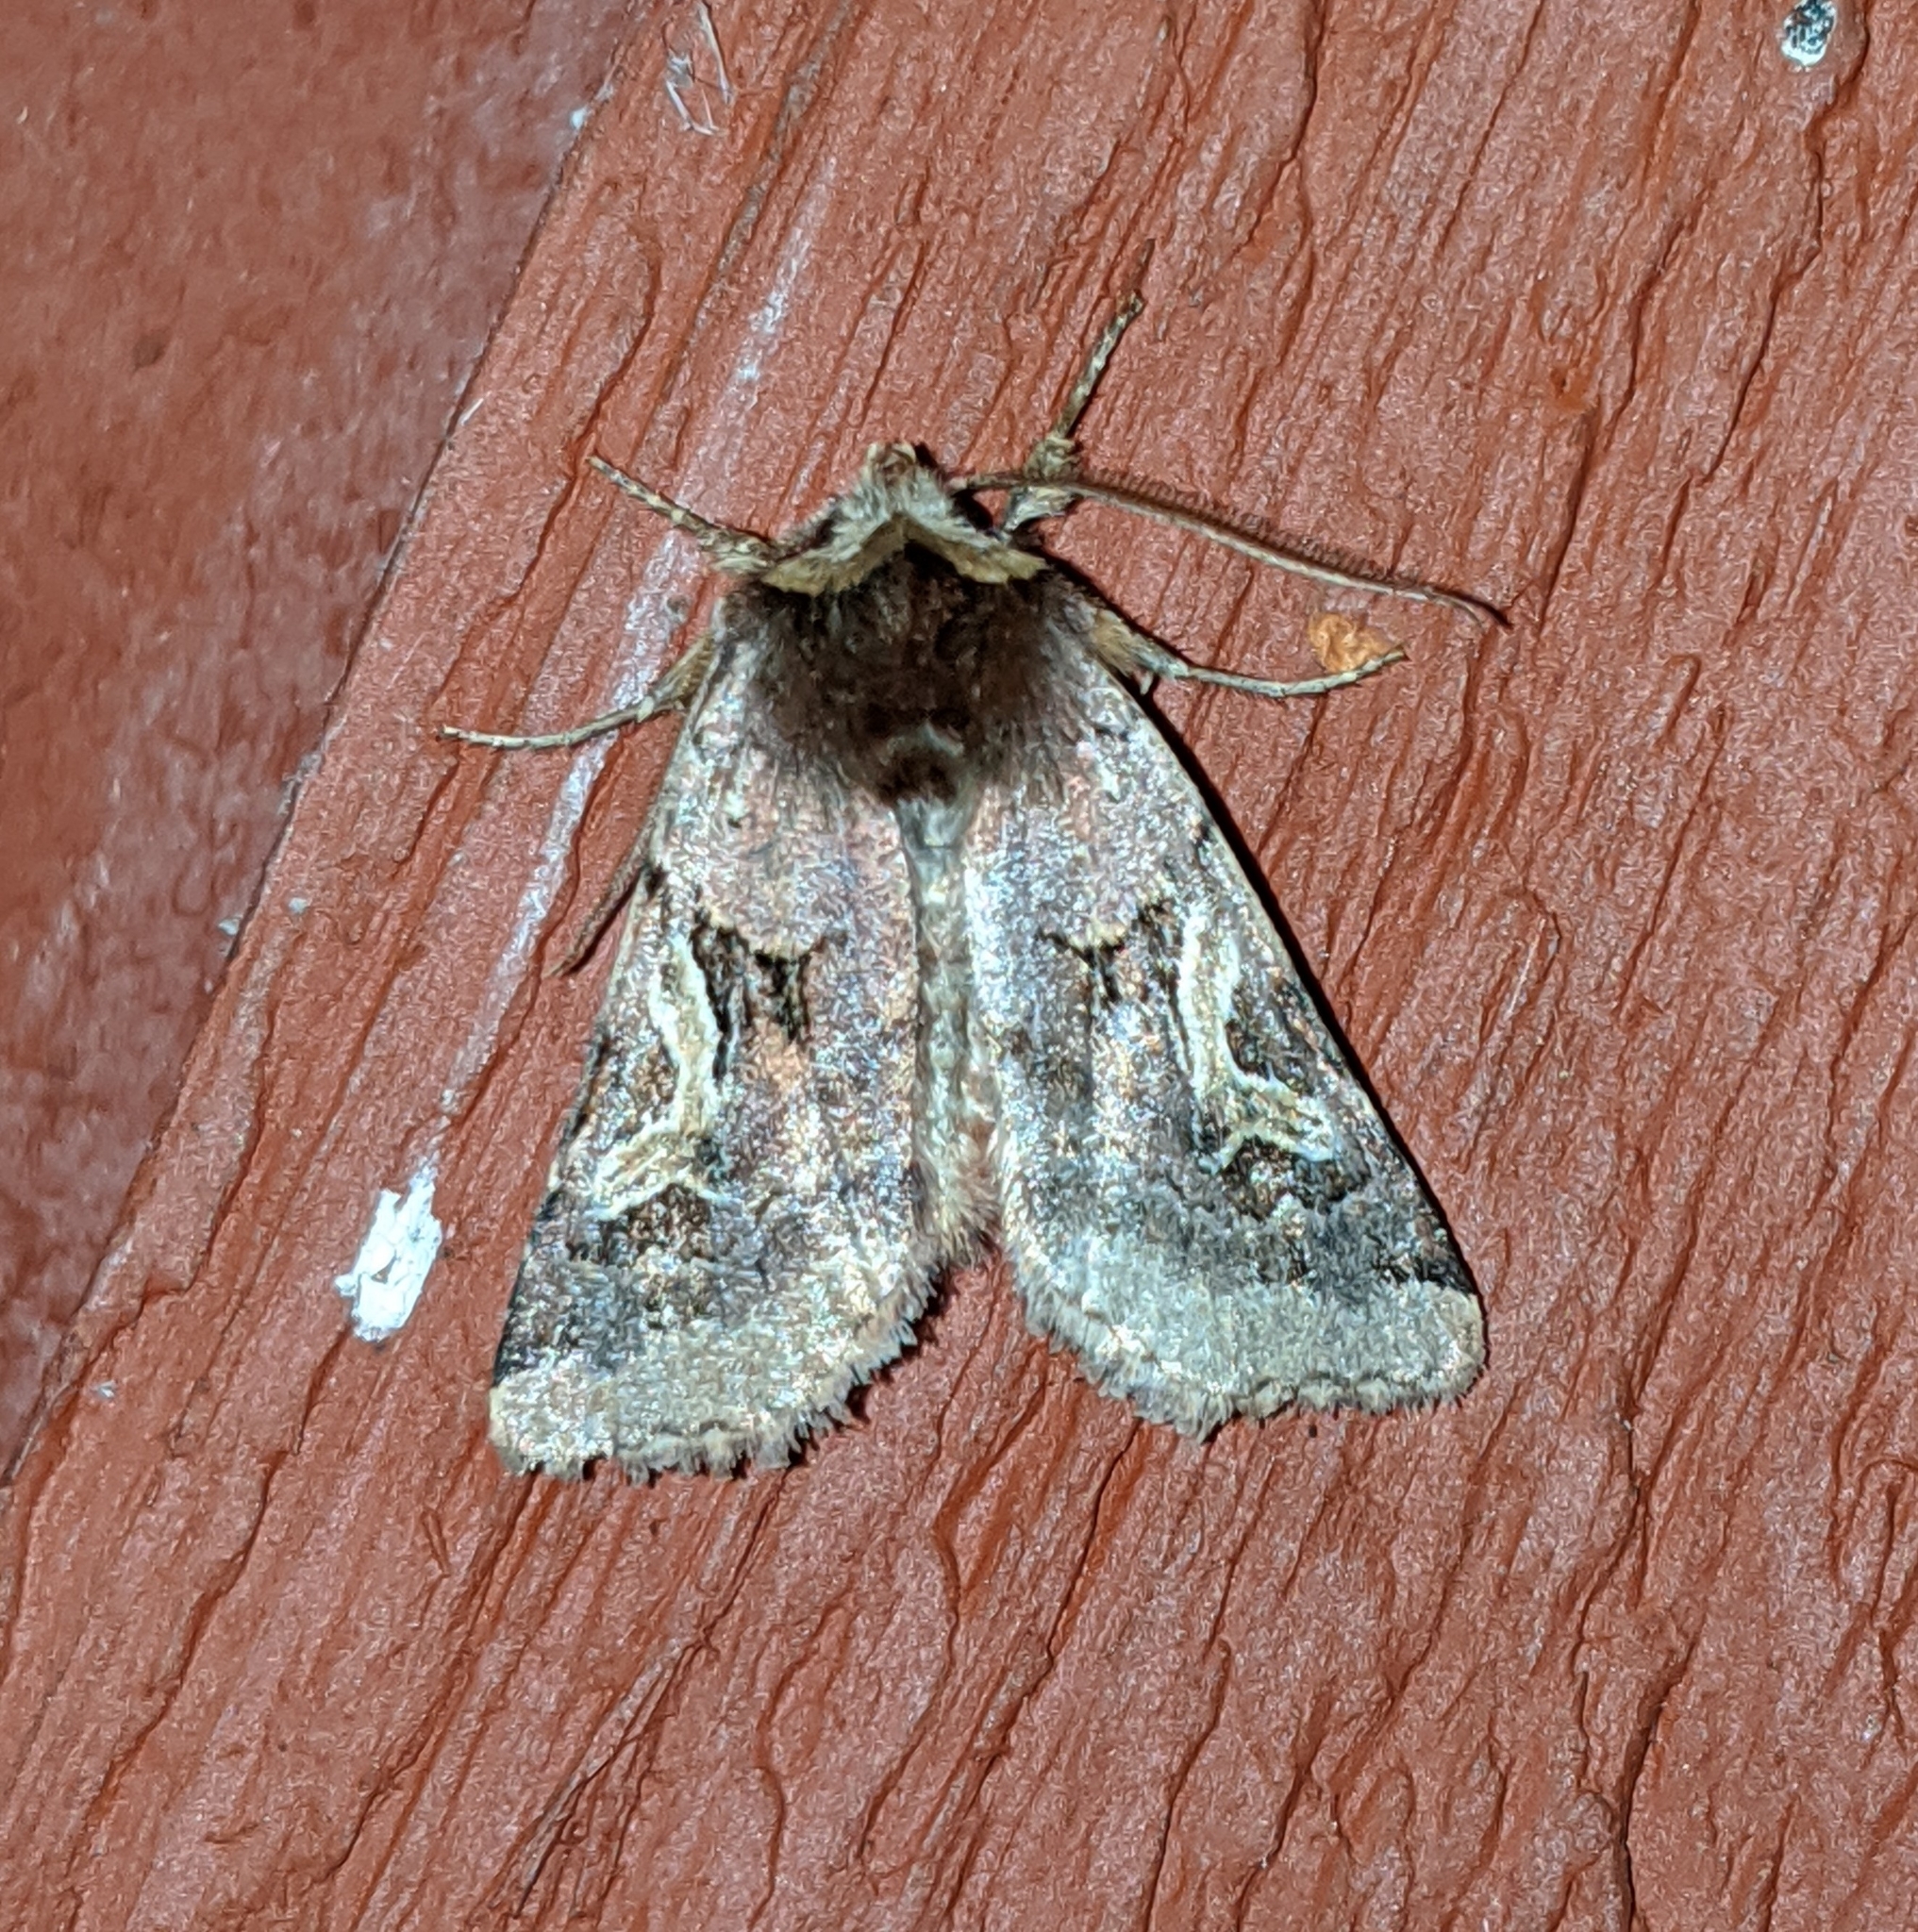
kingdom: Animalia
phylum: Arthropoda
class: Insecta
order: Lepidoptera
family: Noctuidae
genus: Cerastis
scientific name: Cerastis enigmatica
